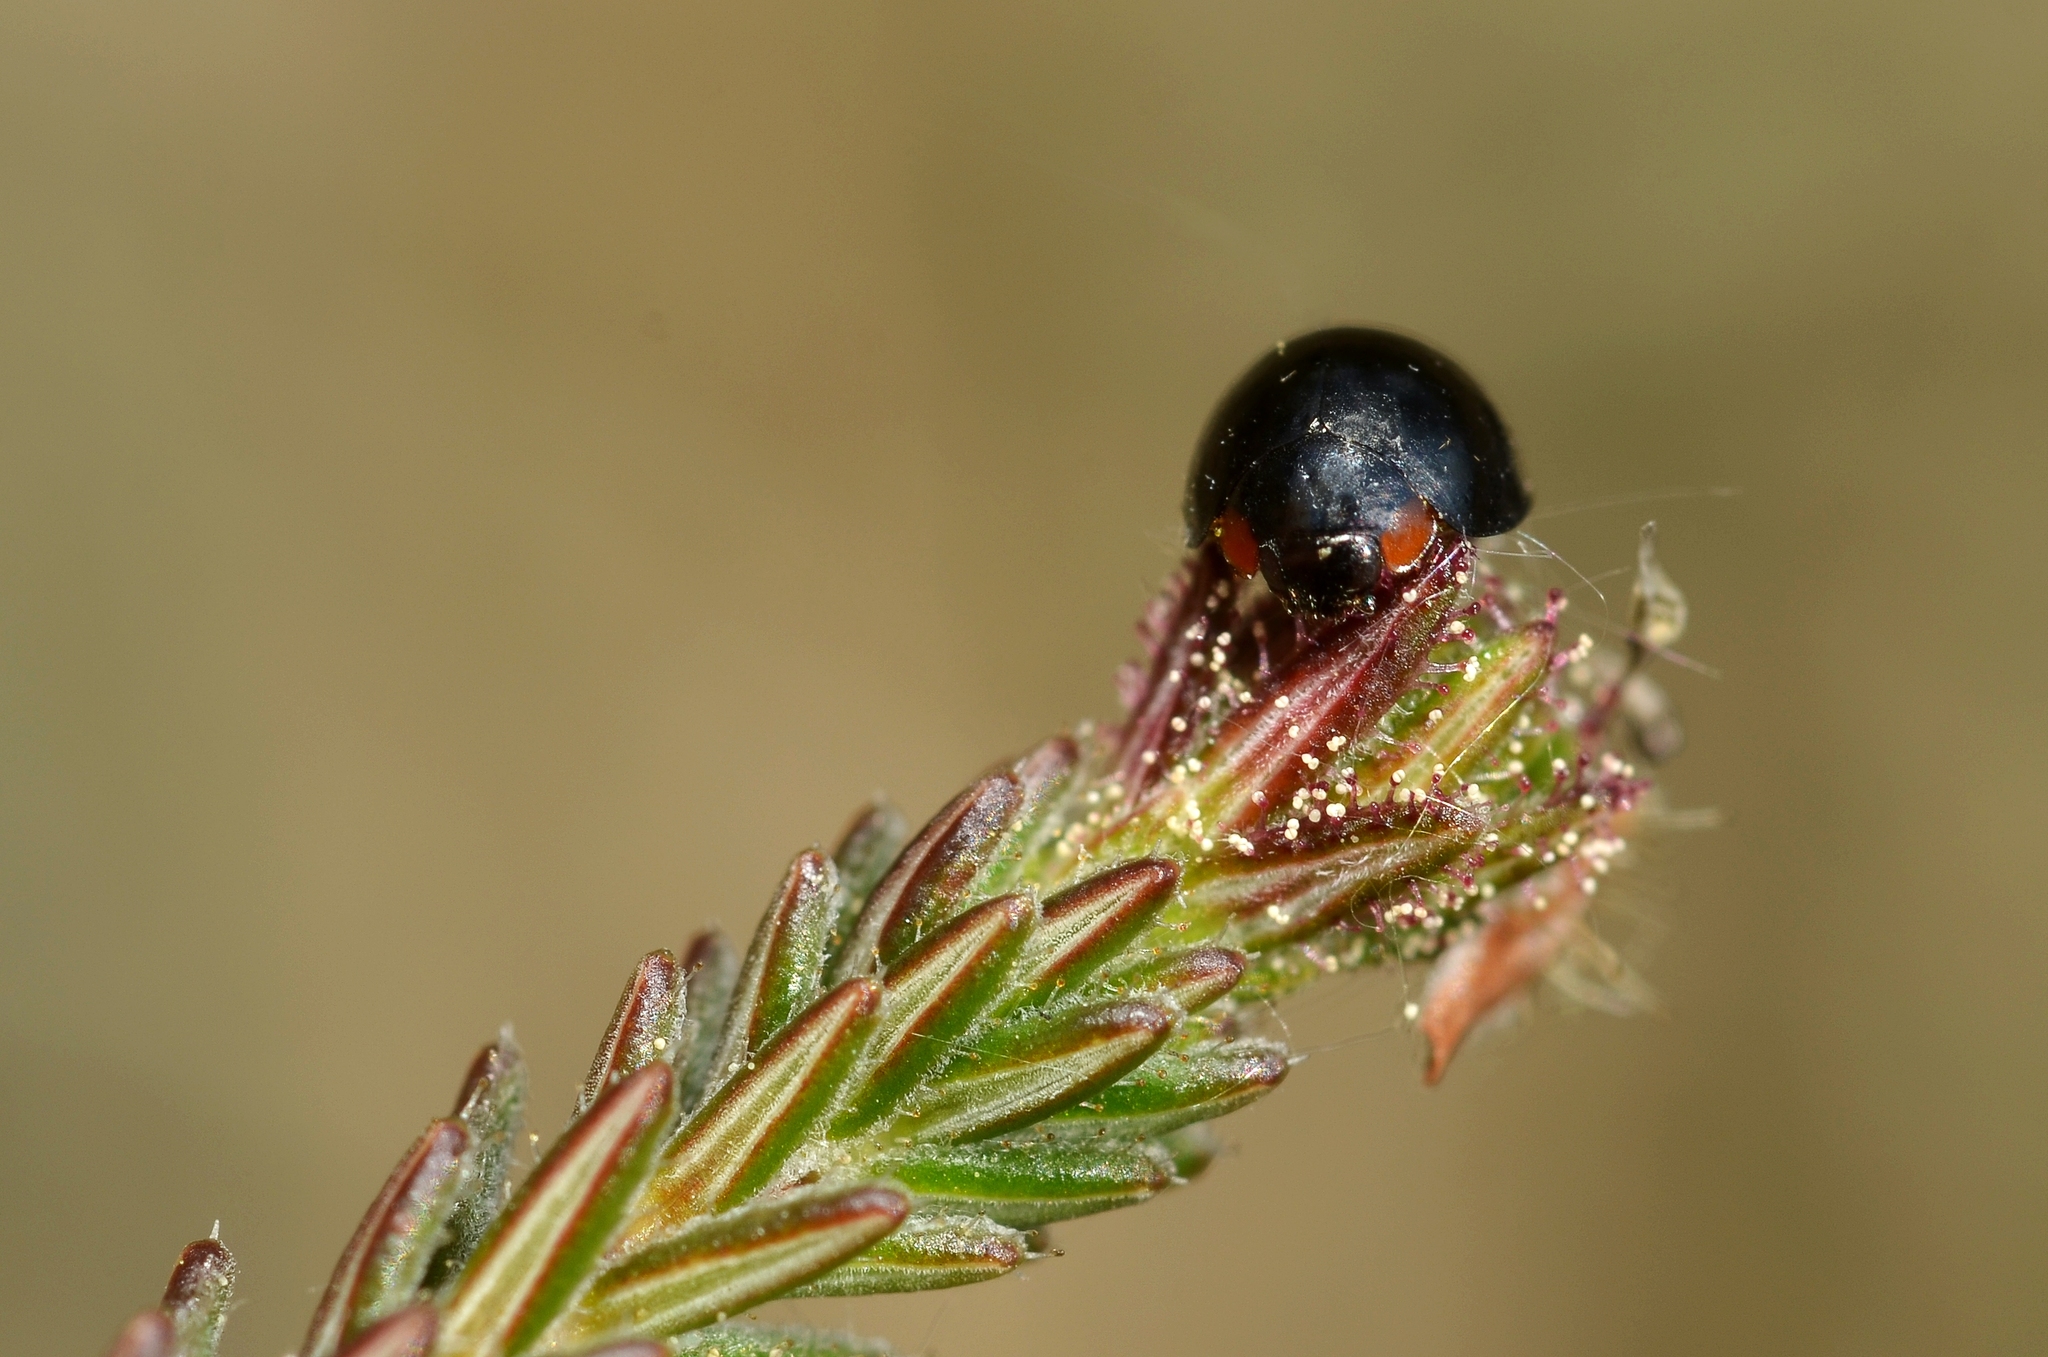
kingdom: Animalia
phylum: Arthropoda
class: Insecta
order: Coleoptera
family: Coccinellidae
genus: Parexochomus
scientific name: Parexochomus nigromaculatus
